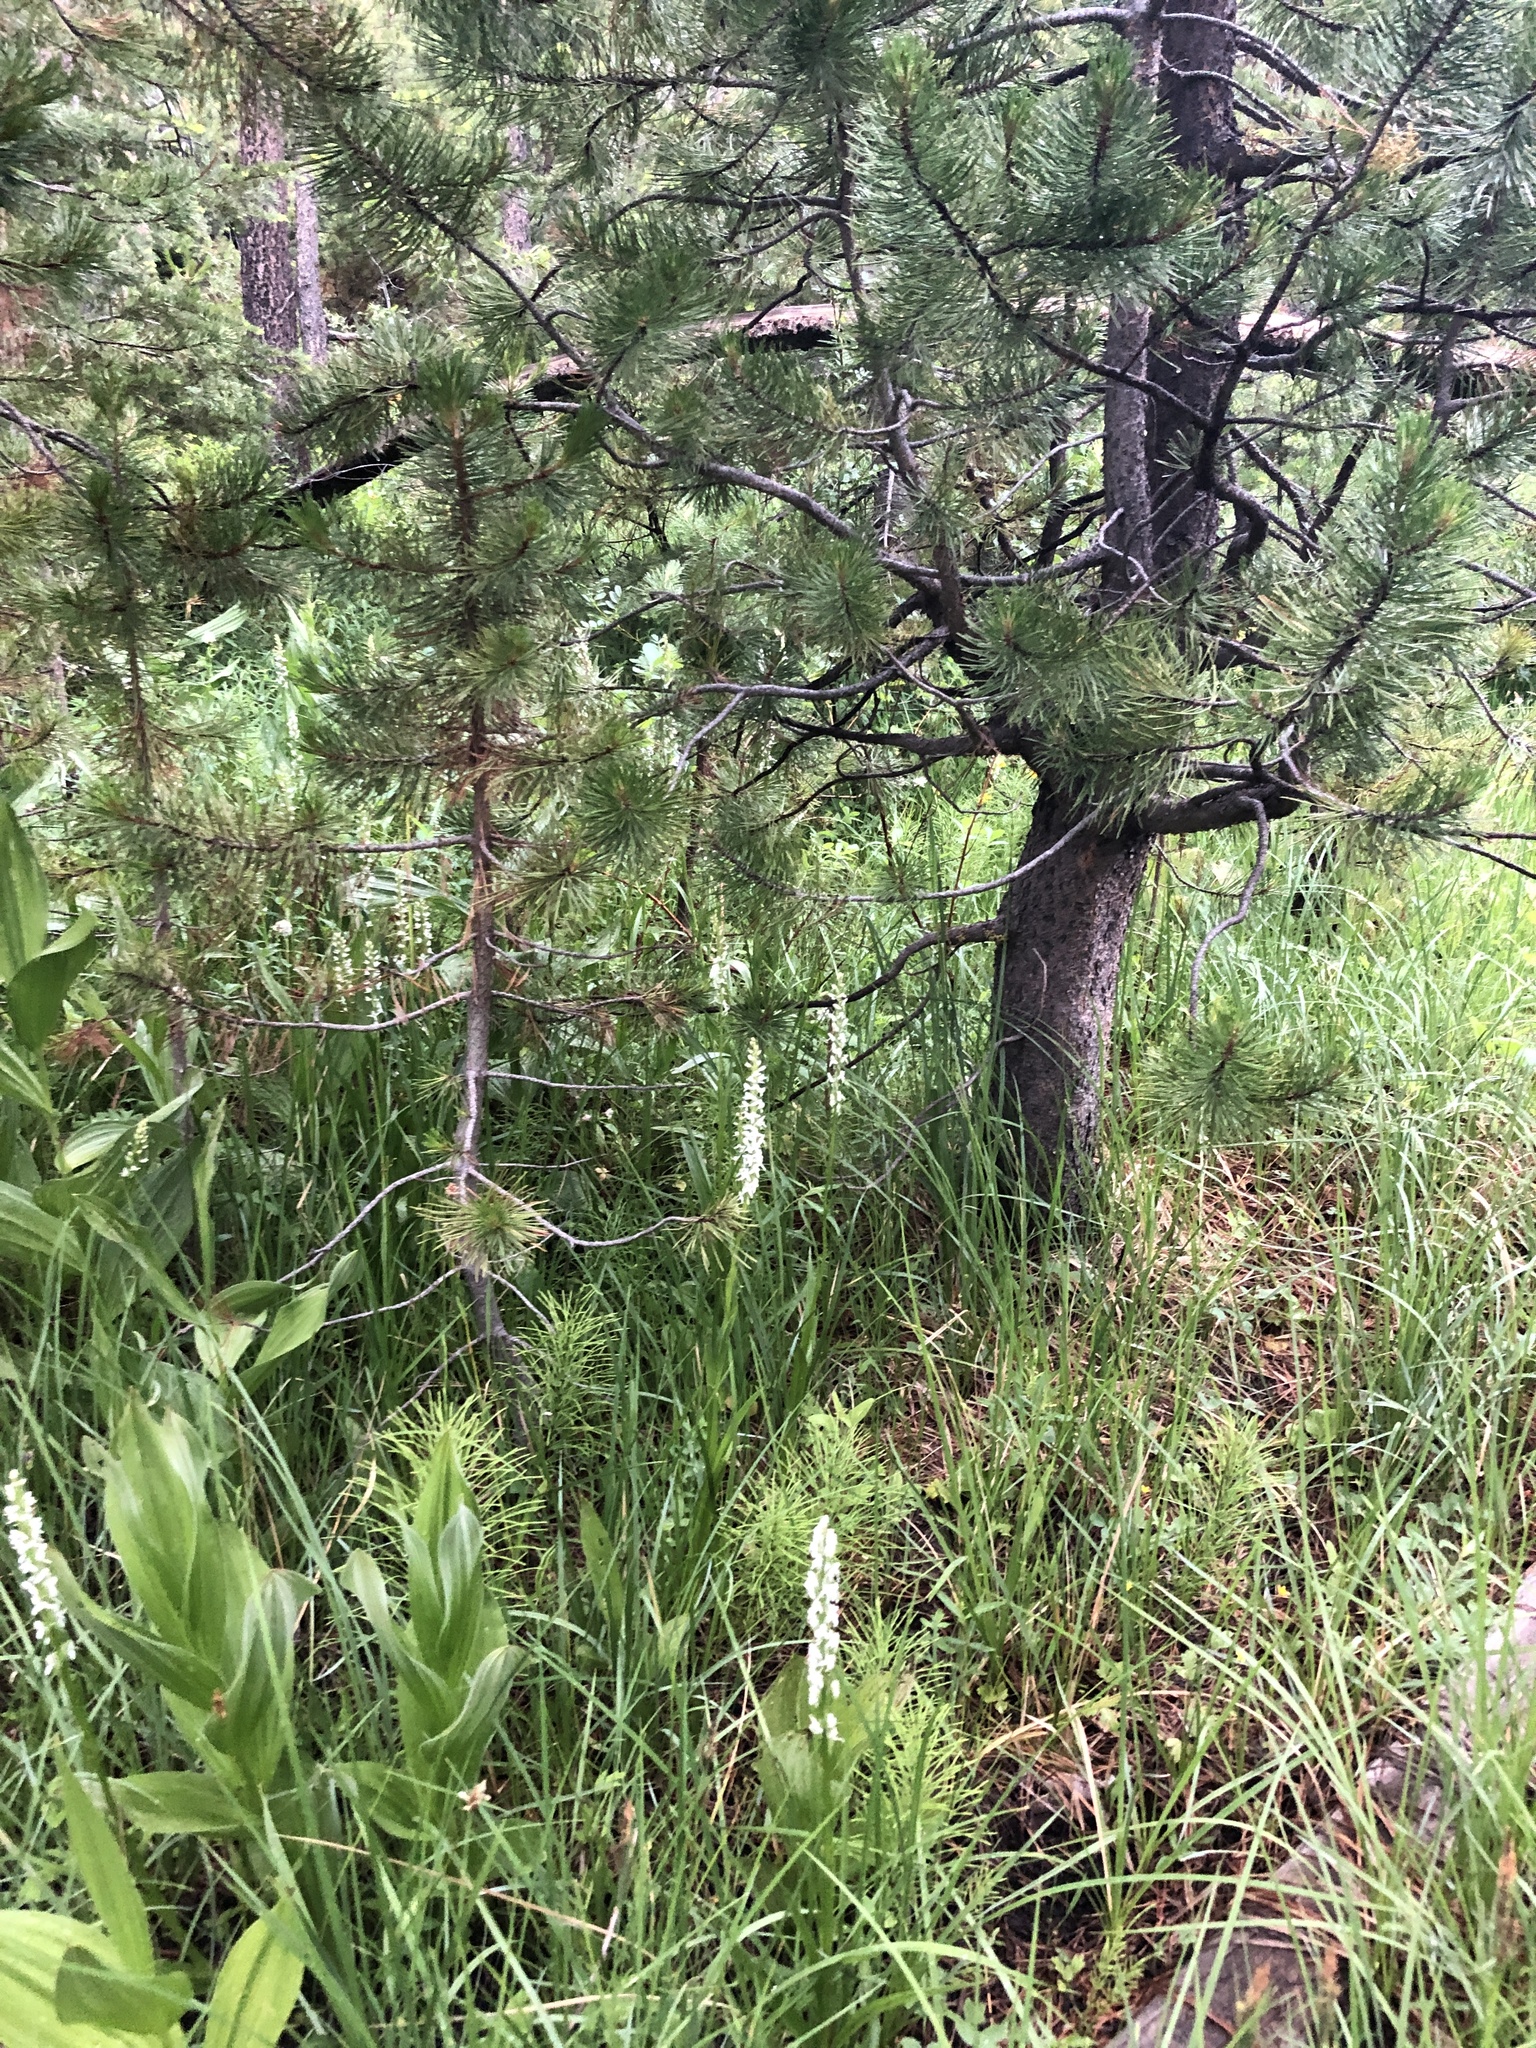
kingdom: Plantae
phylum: Tracheophyta
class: Liliopsida
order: Asparagales
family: Orchidaceae
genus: Platanthera
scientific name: Platanthera dilatata
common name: Bog candles
